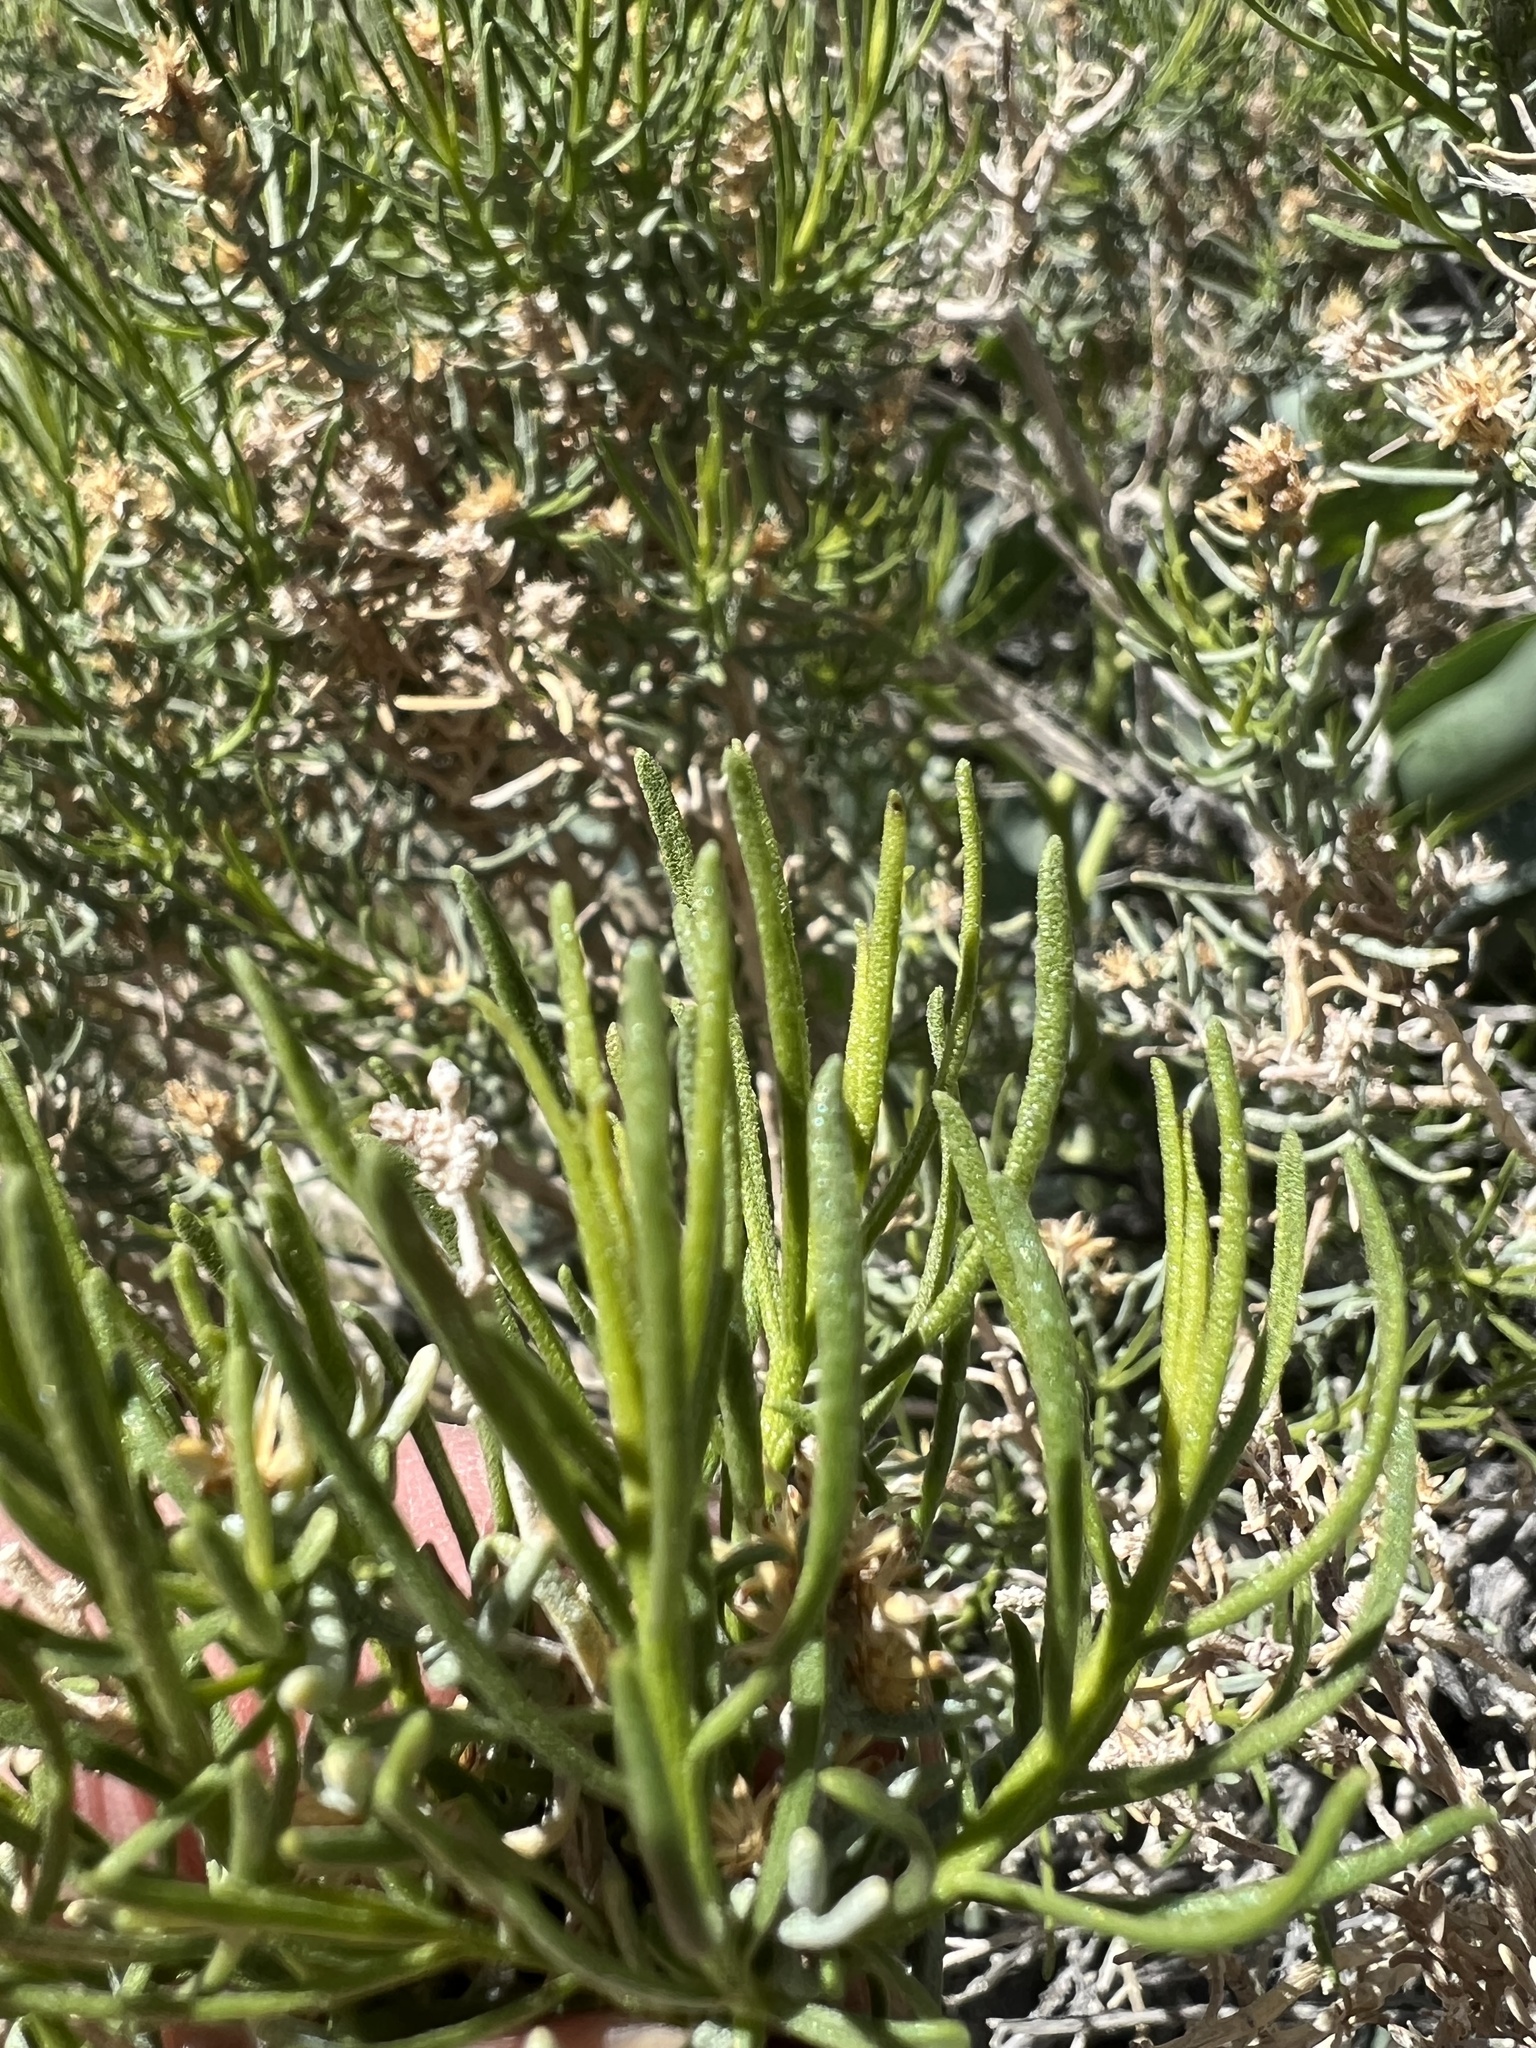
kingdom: Plantae
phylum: Tracheophyta
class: Magnoliopsida
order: Asterales
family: Asteraceae
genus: Ericameria
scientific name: Ericameria teretifolia
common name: Round-leaf rabbitbrush
